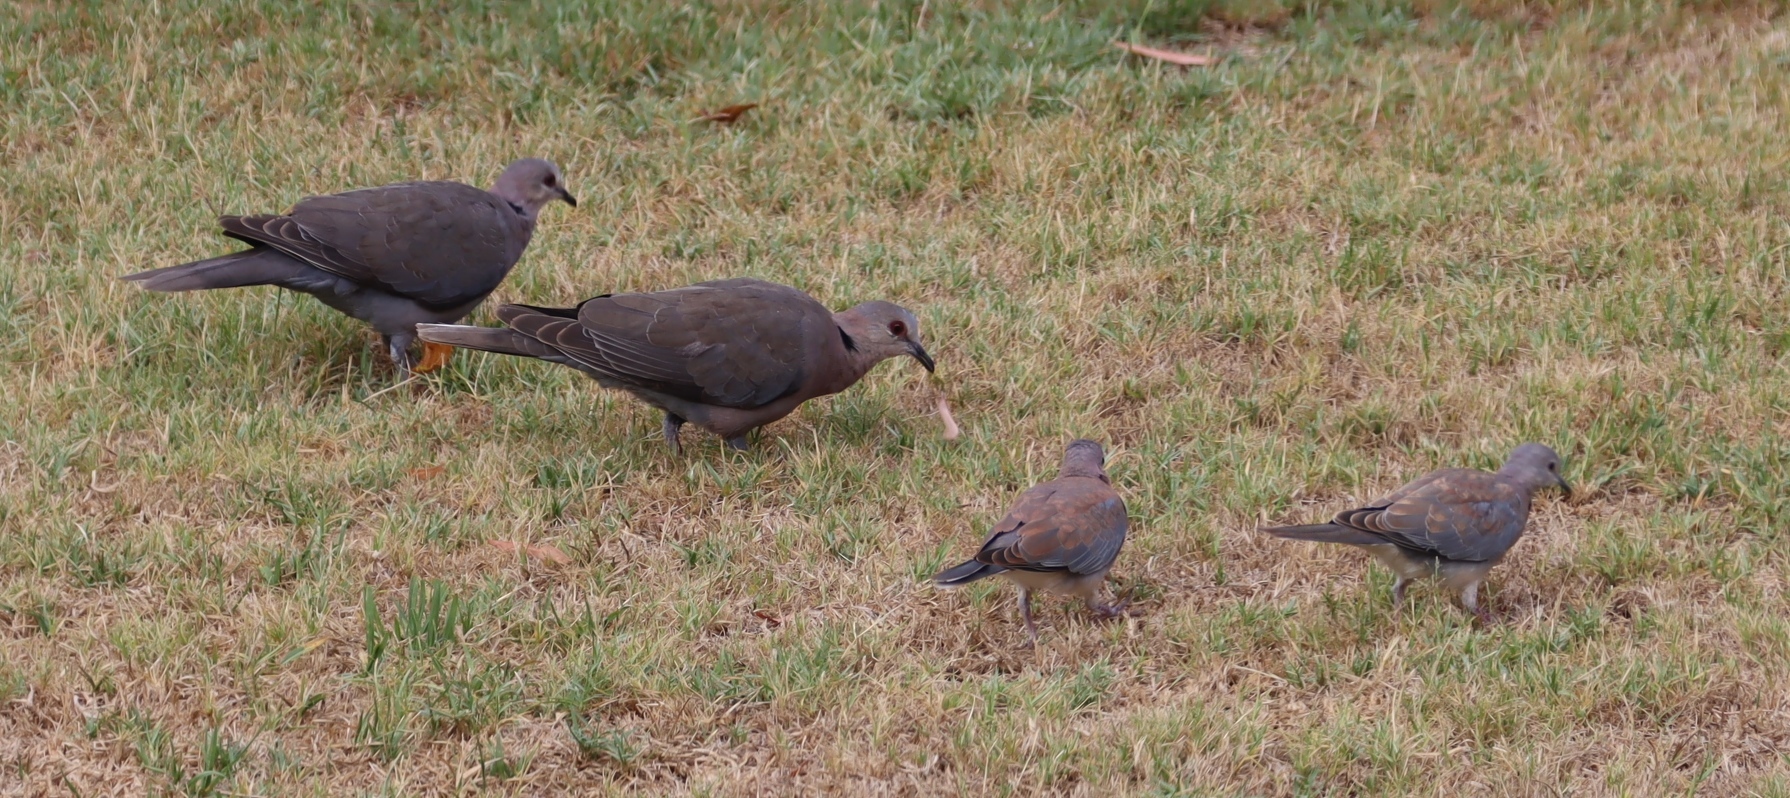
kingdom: Animalia
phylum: Chordata
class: Aves
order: Columbiformes
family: Columbidae
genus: Spilopelia
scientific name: Spilopelia senegalensis
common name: Laughing dove
